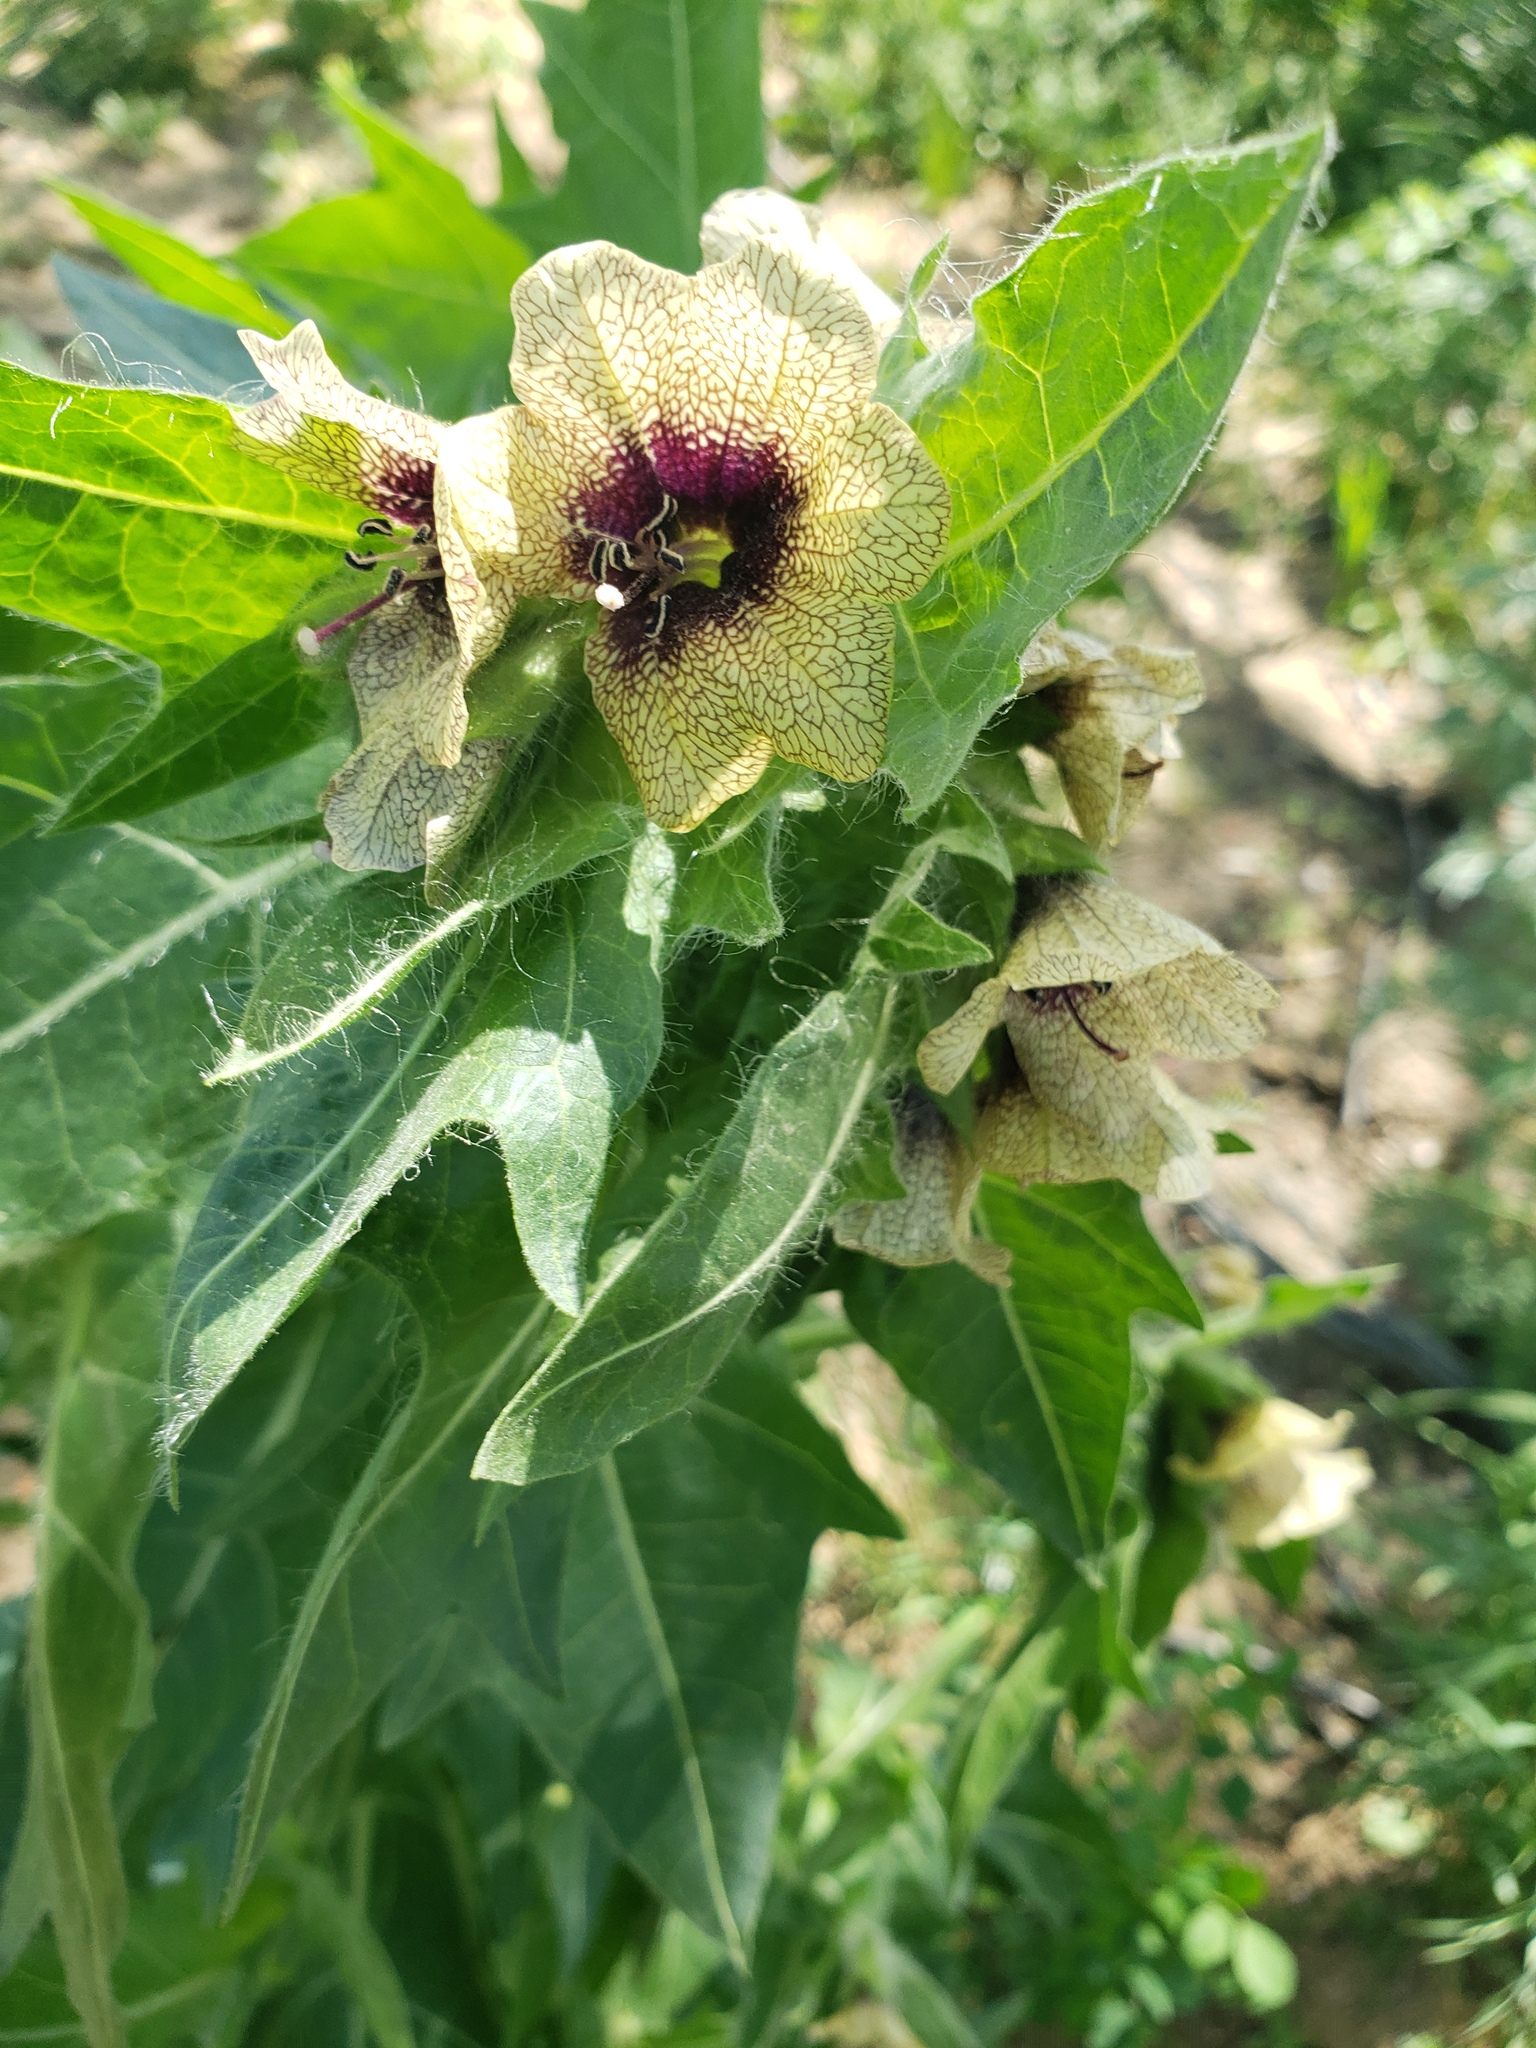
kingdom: Plantae
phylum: Tracheophyta
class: Magnoliopsida
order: Solanales
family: Solanaceae
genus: Hyoscyamus
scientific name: Hyoscyamus niger
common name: Henbane
